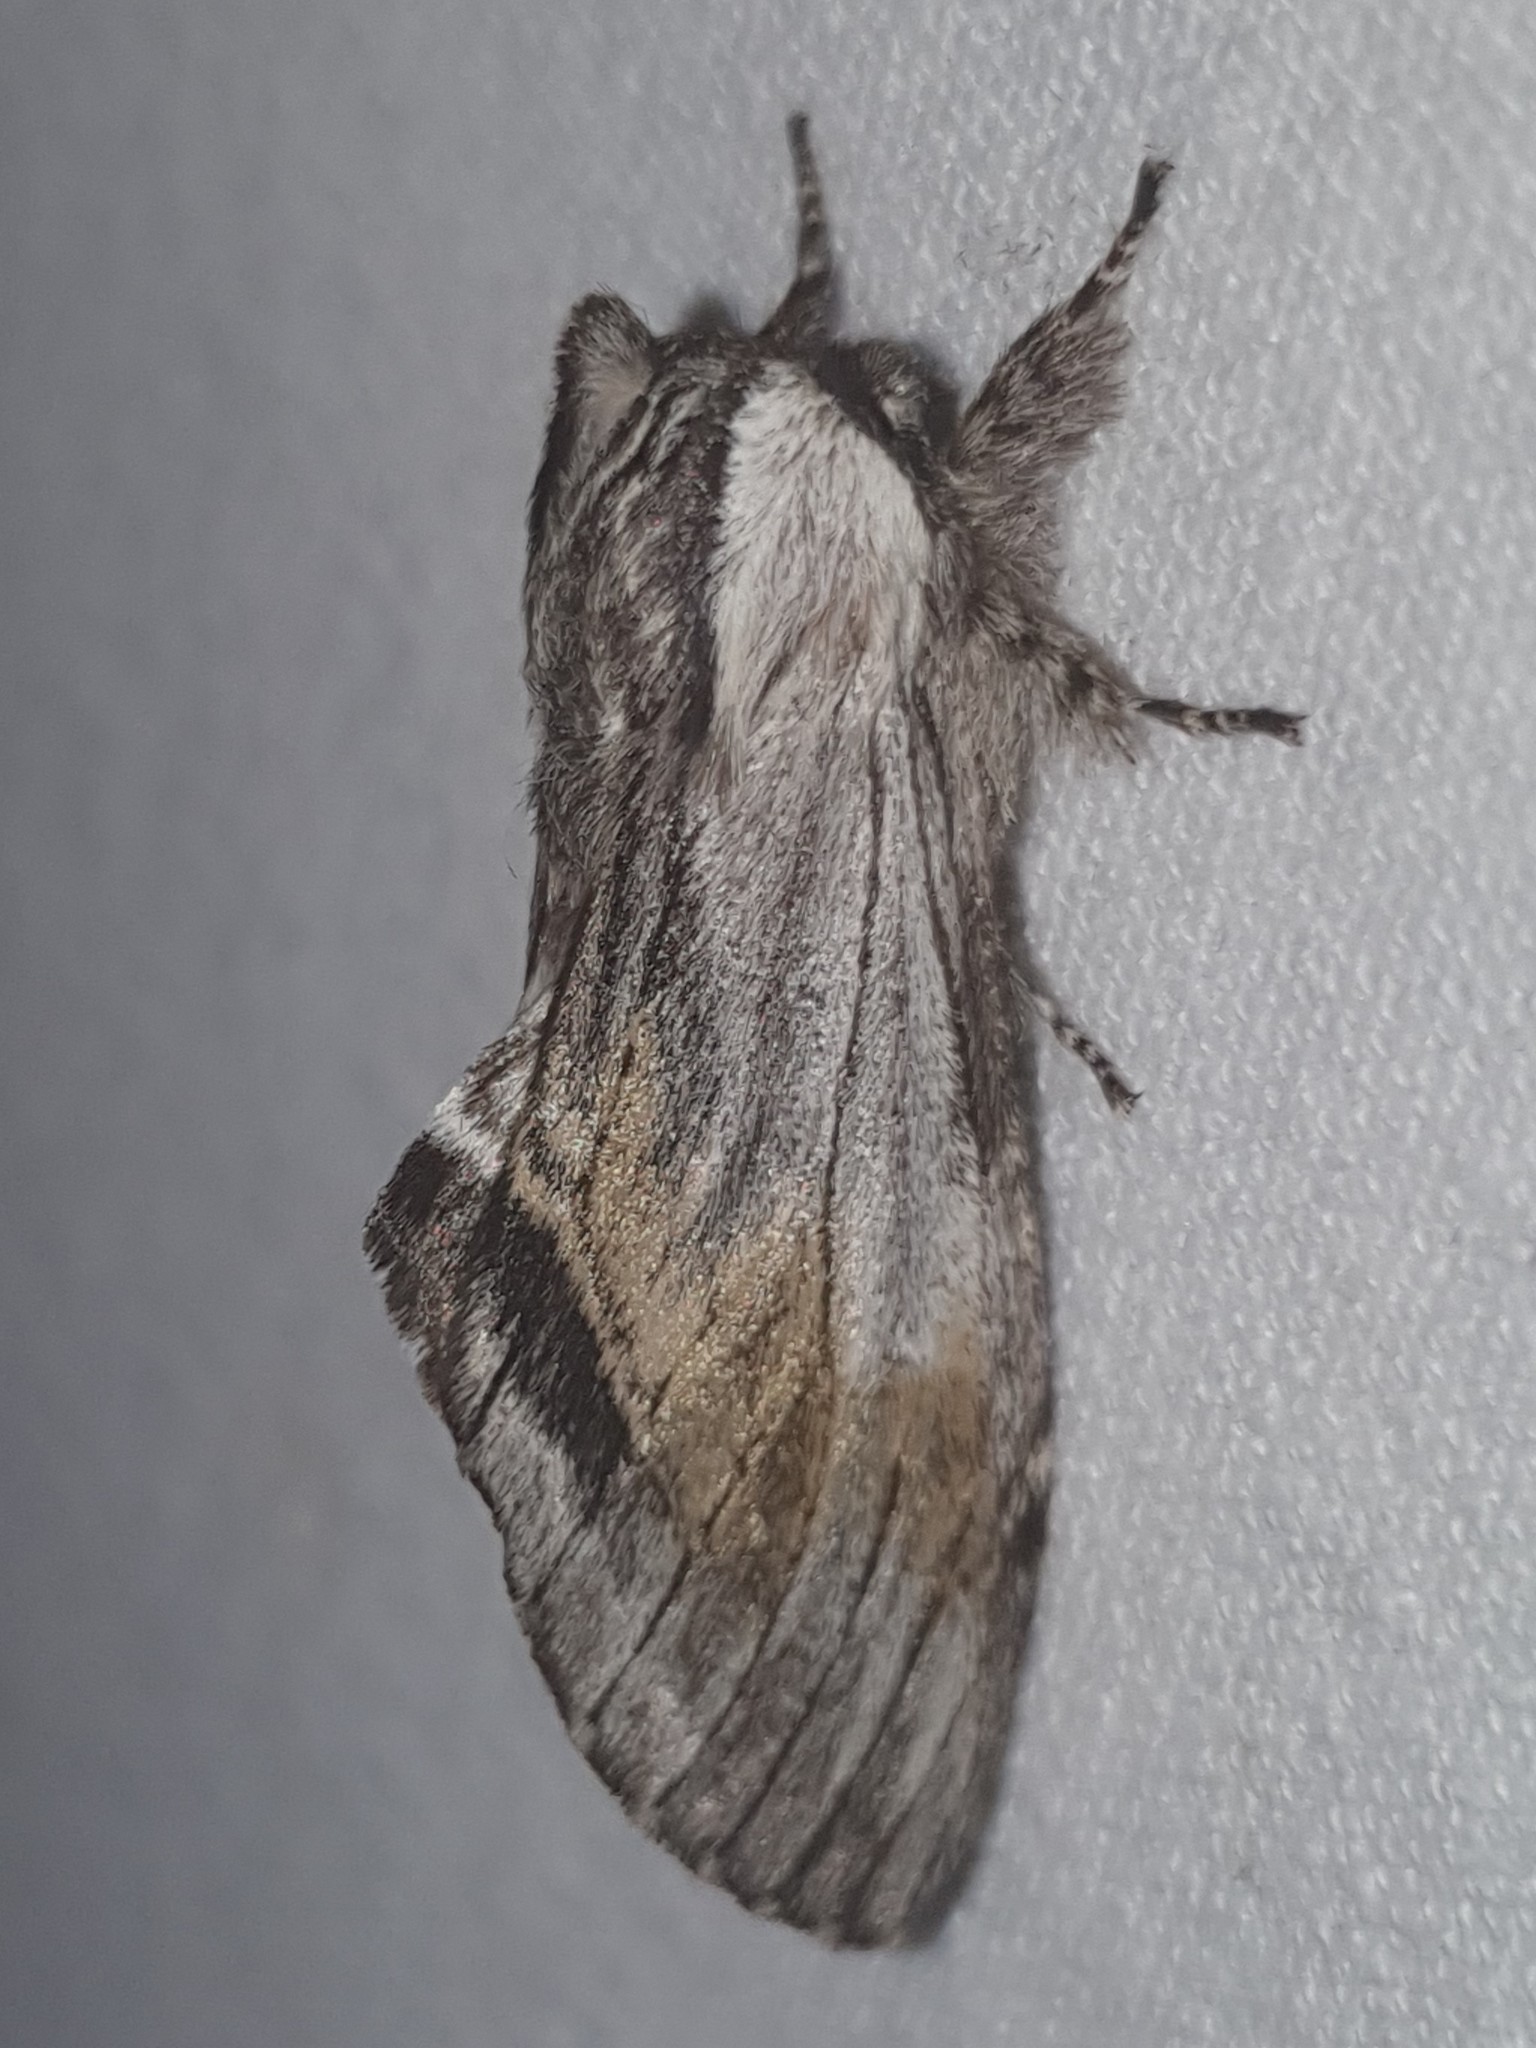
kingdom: Animalia
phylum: Arthropoda
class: Insecta
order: Lepidoptera
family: Notodontidae
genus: Harpyia
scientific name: Harpyia milhauseri
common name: Tawny prominent
